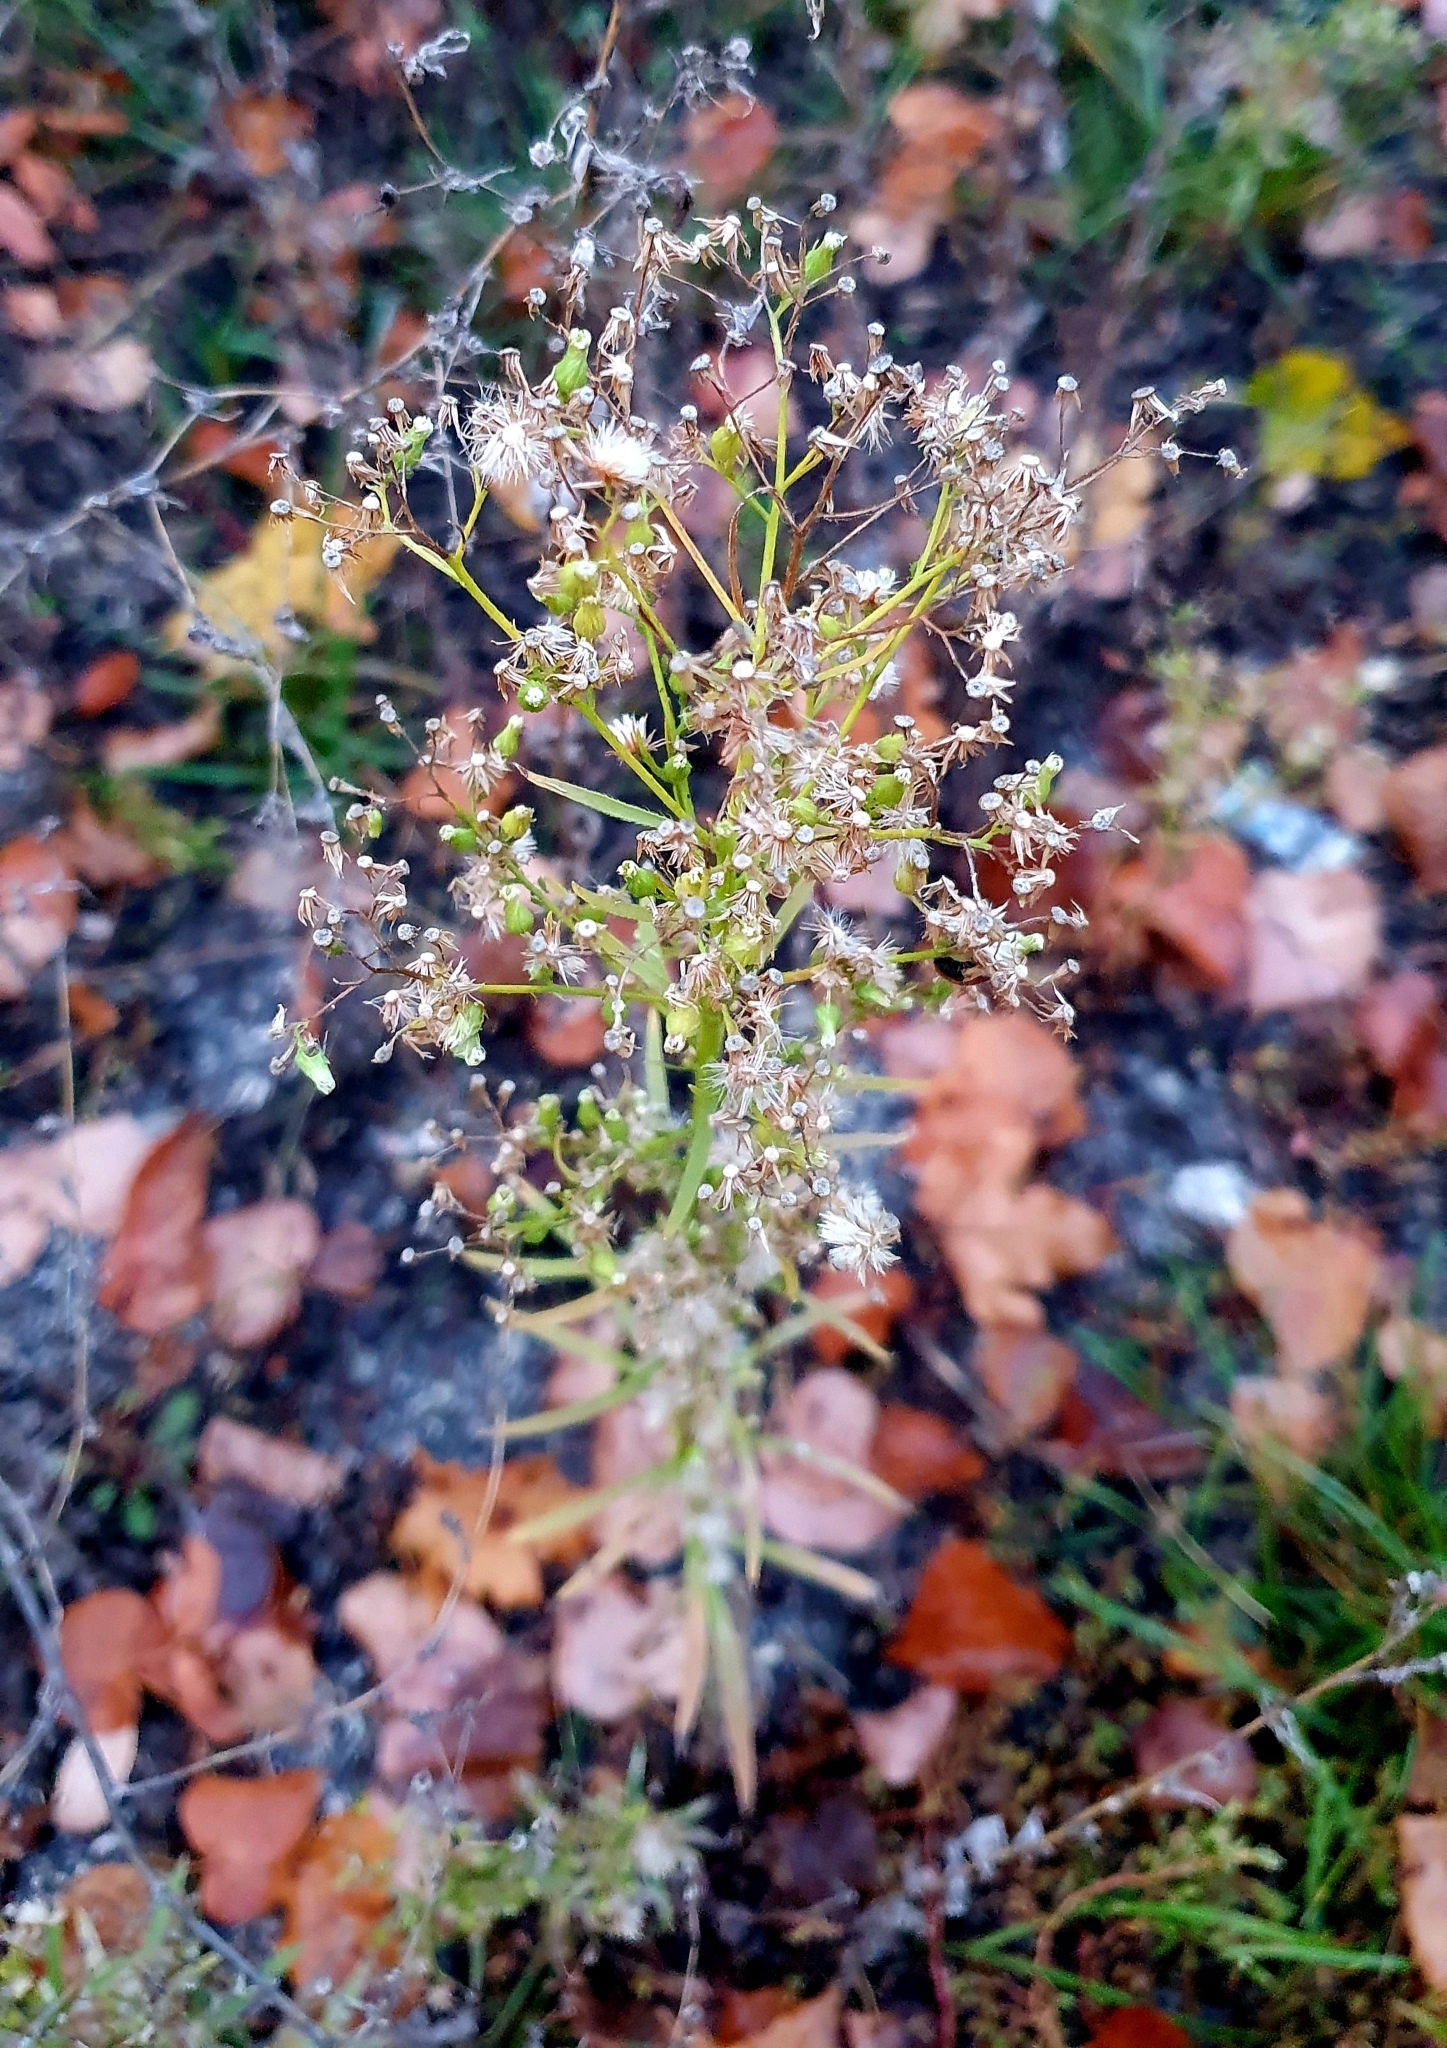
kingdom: Plantae
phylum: Tracheophyta
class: Magnoliopsida
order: Asterales
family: Asteraceae
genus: Erigeron
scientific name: Erigeron canadensis
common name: Canadian fleabane
